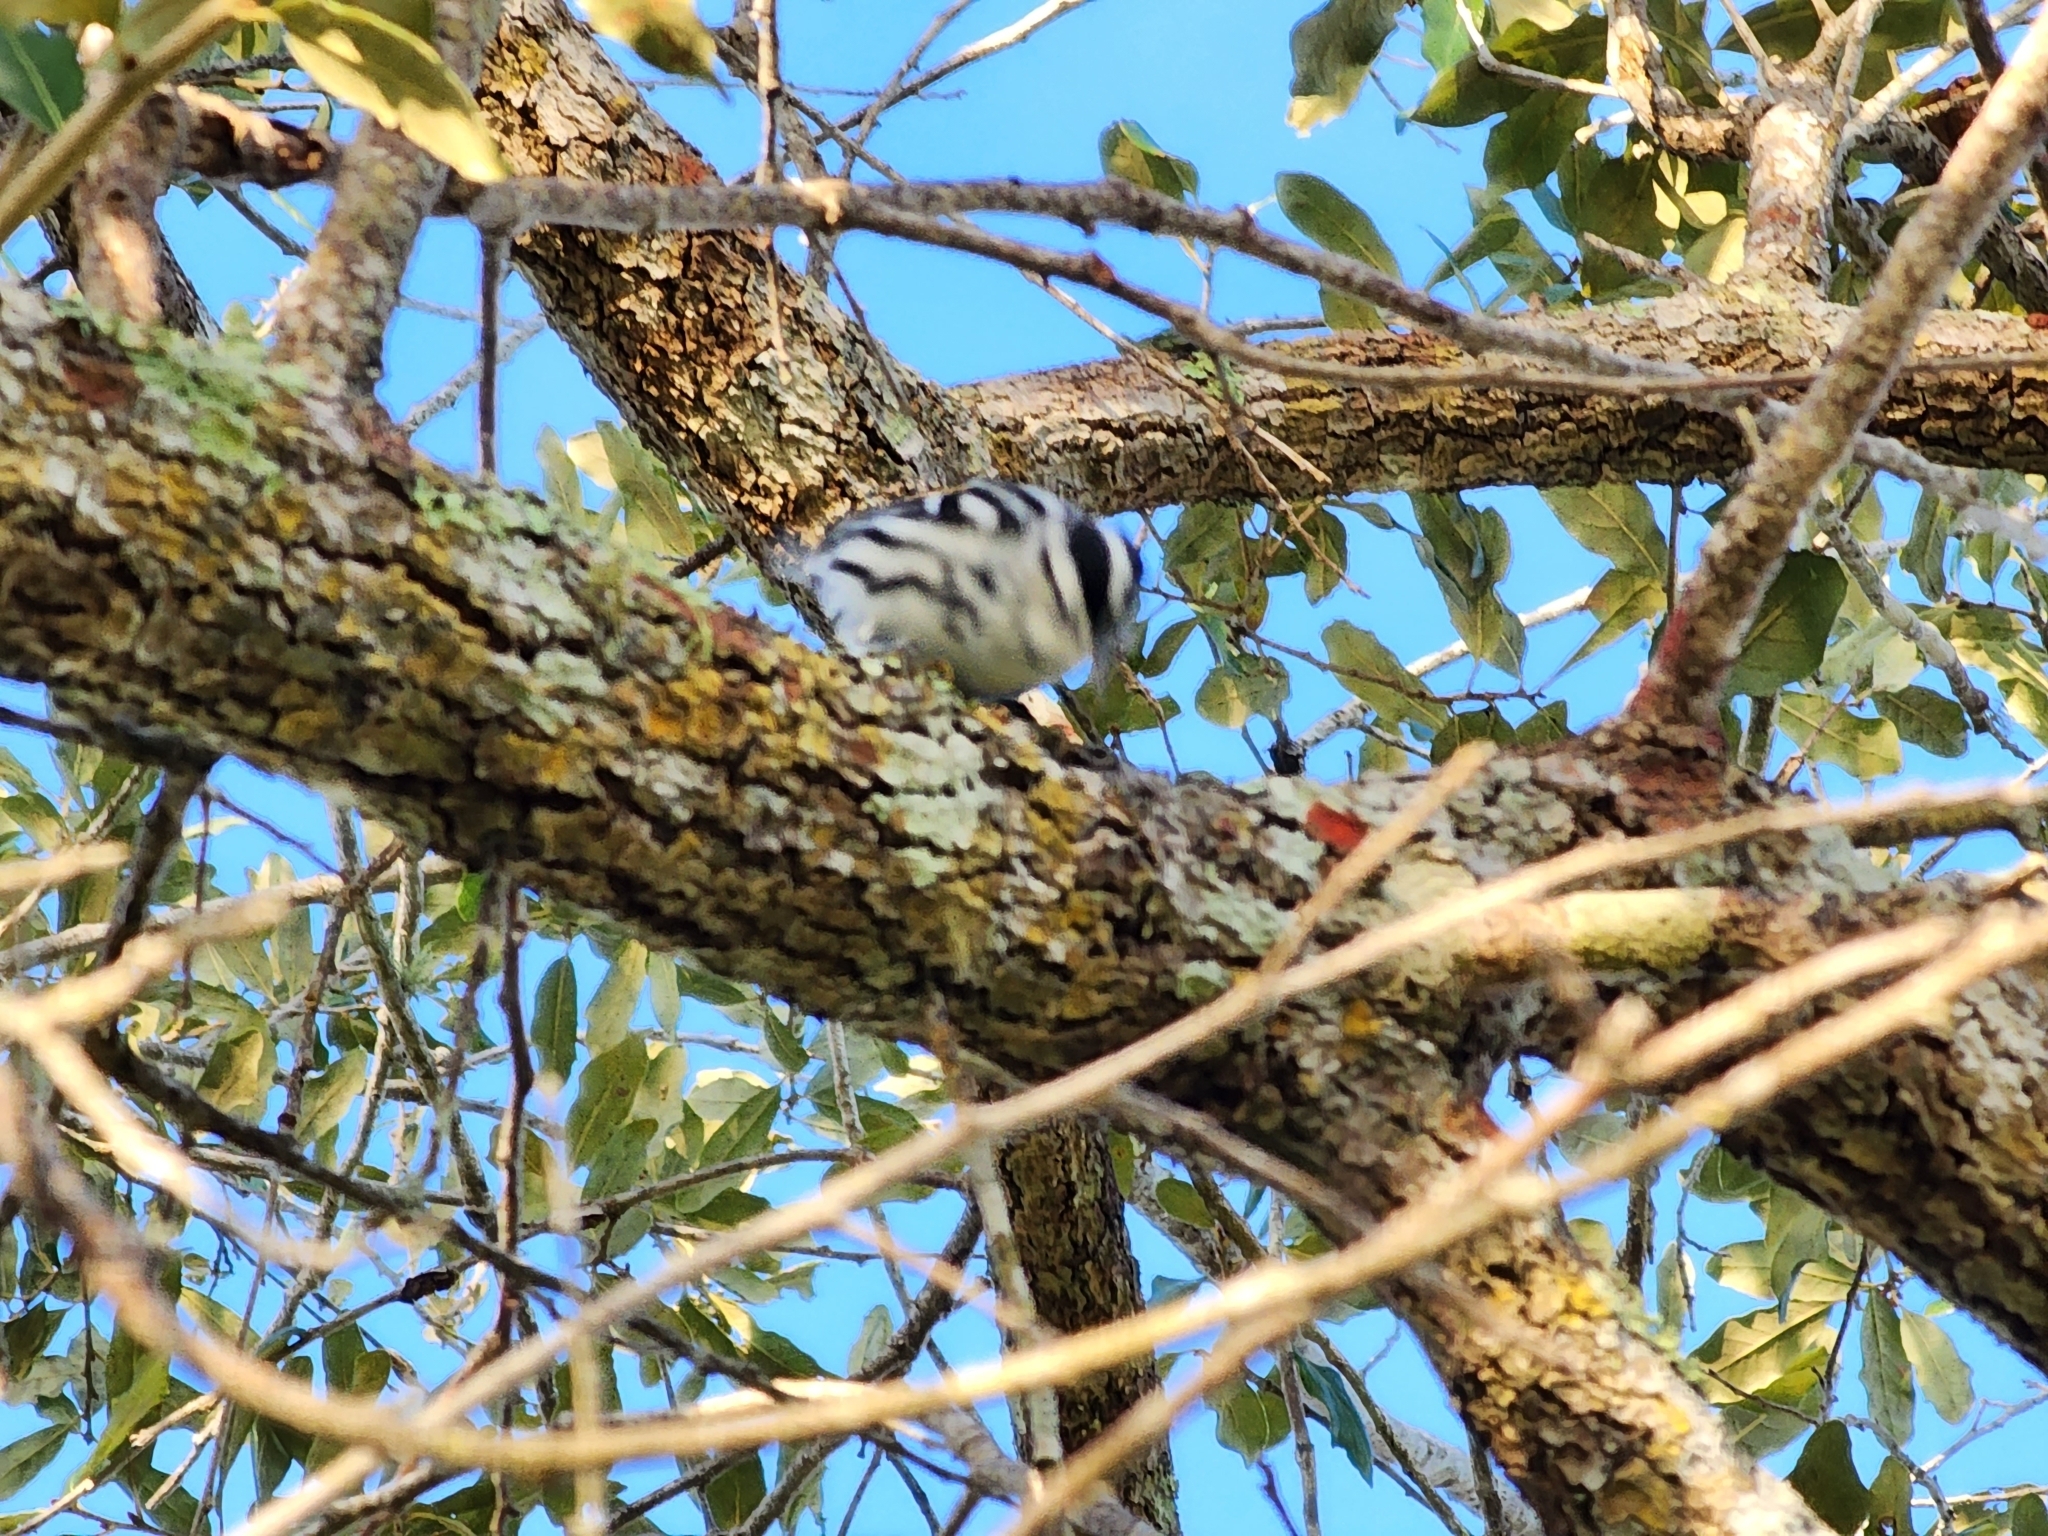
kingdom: Animalia
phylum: Chordata
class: Aves
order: Passeriformes
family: Parulidae
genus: Mniotilta
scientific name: Mniotilta varia
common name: Black-and-white warbler
